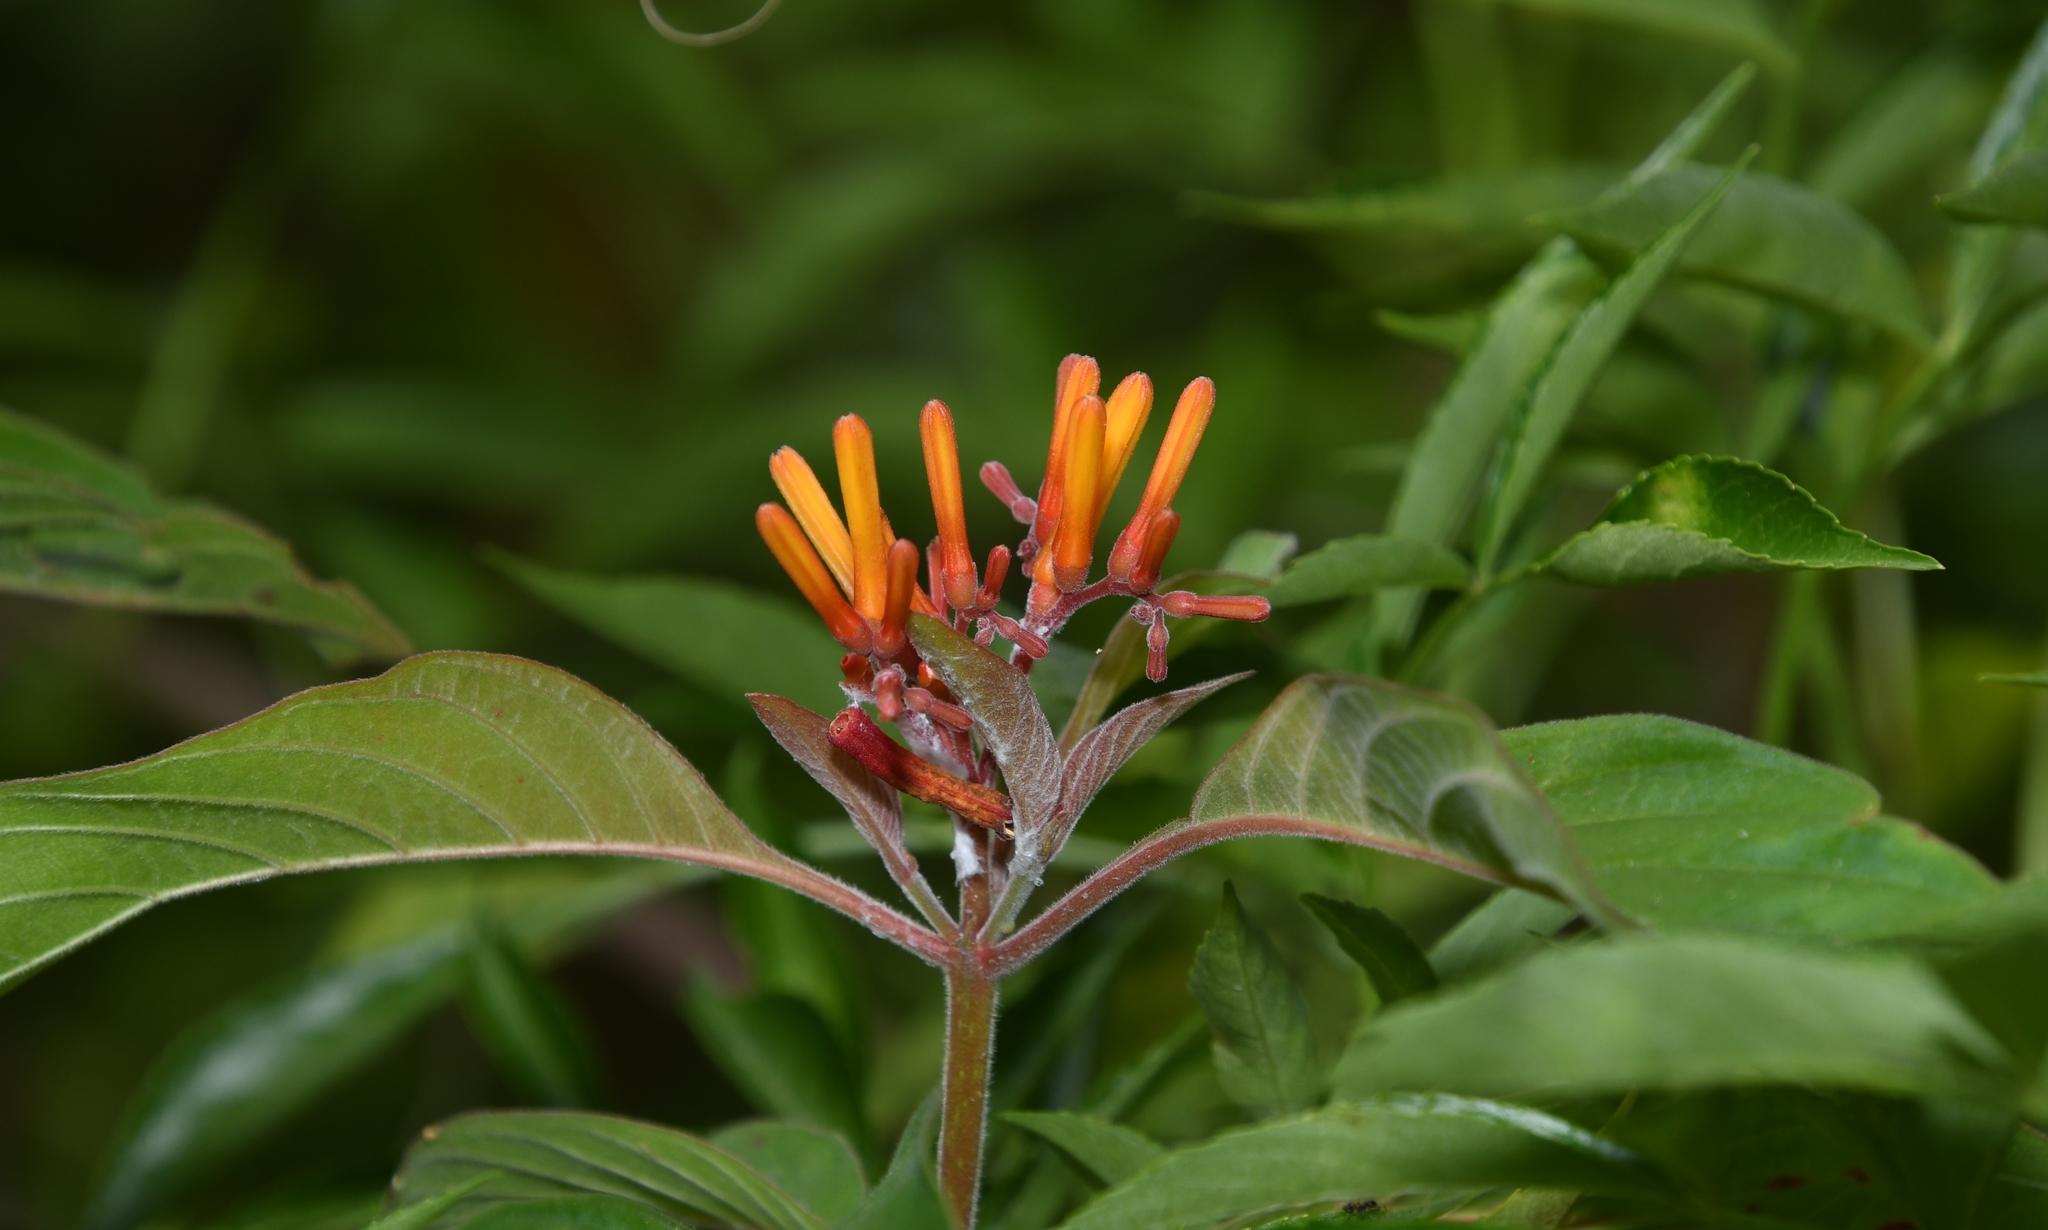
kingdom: Plantae
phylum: Tracheophyta
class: Magnoliopsida
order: Gentianales
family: Rubiaceae
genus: Hamelia
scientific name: Hamelia patens
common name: Redhead
